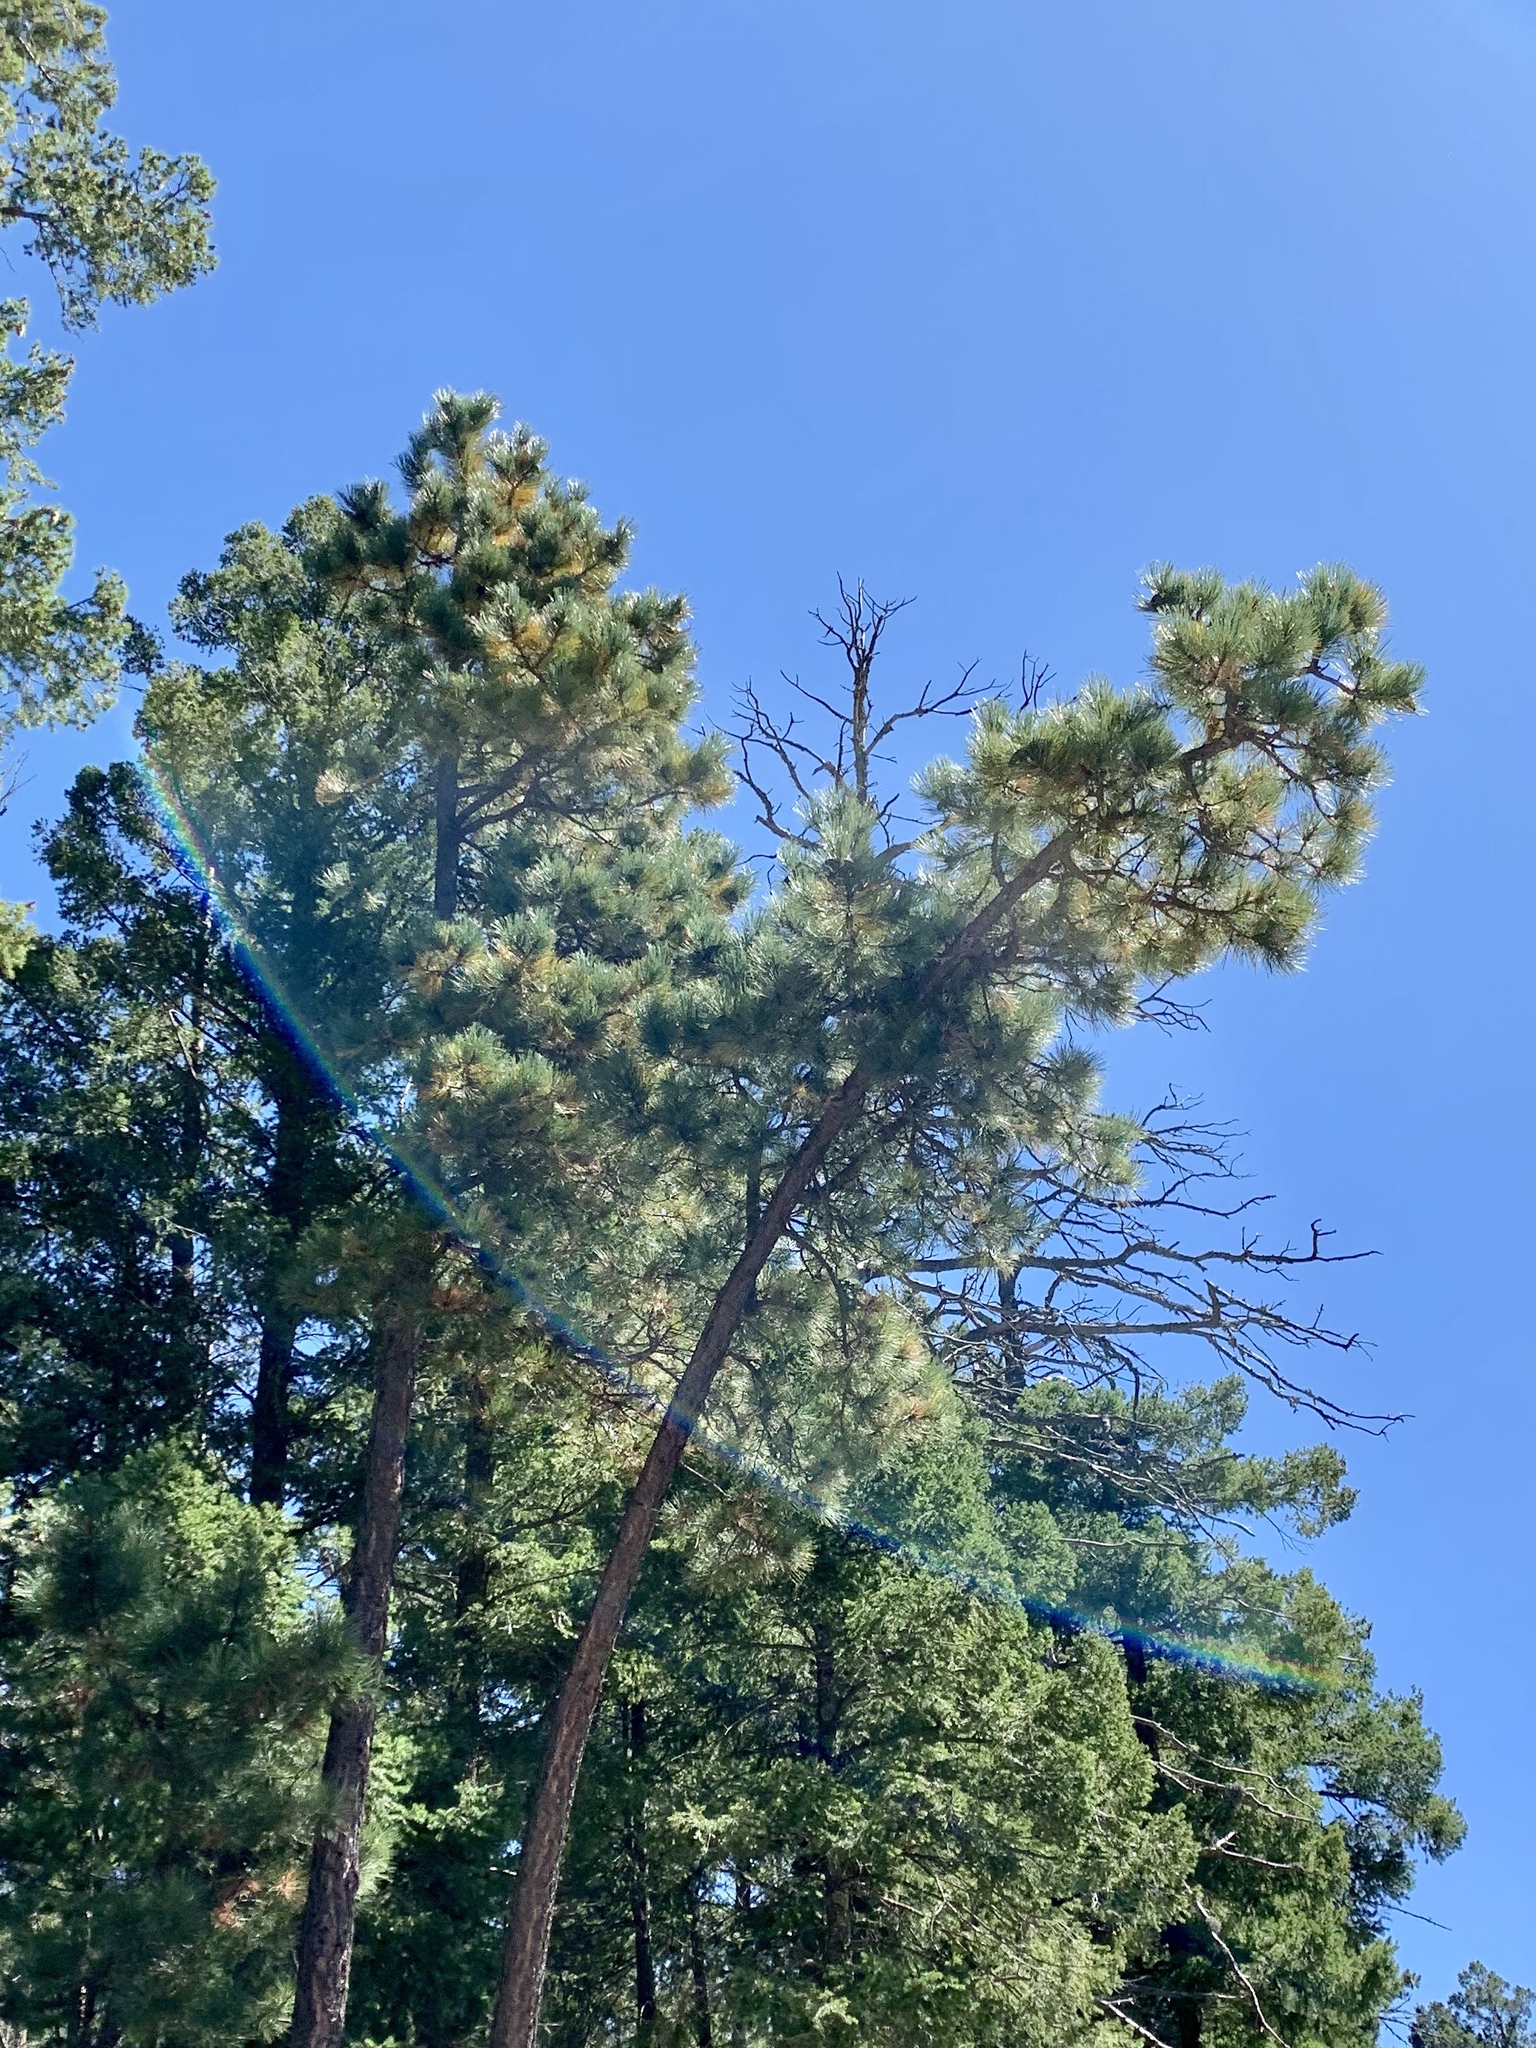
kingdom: Plantae
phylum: Tracheophyta
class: Pinopsida
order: Pinales
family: Pinaceae
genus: Pinus
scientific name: Pinus ponderosa
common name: Western yellow-pine
